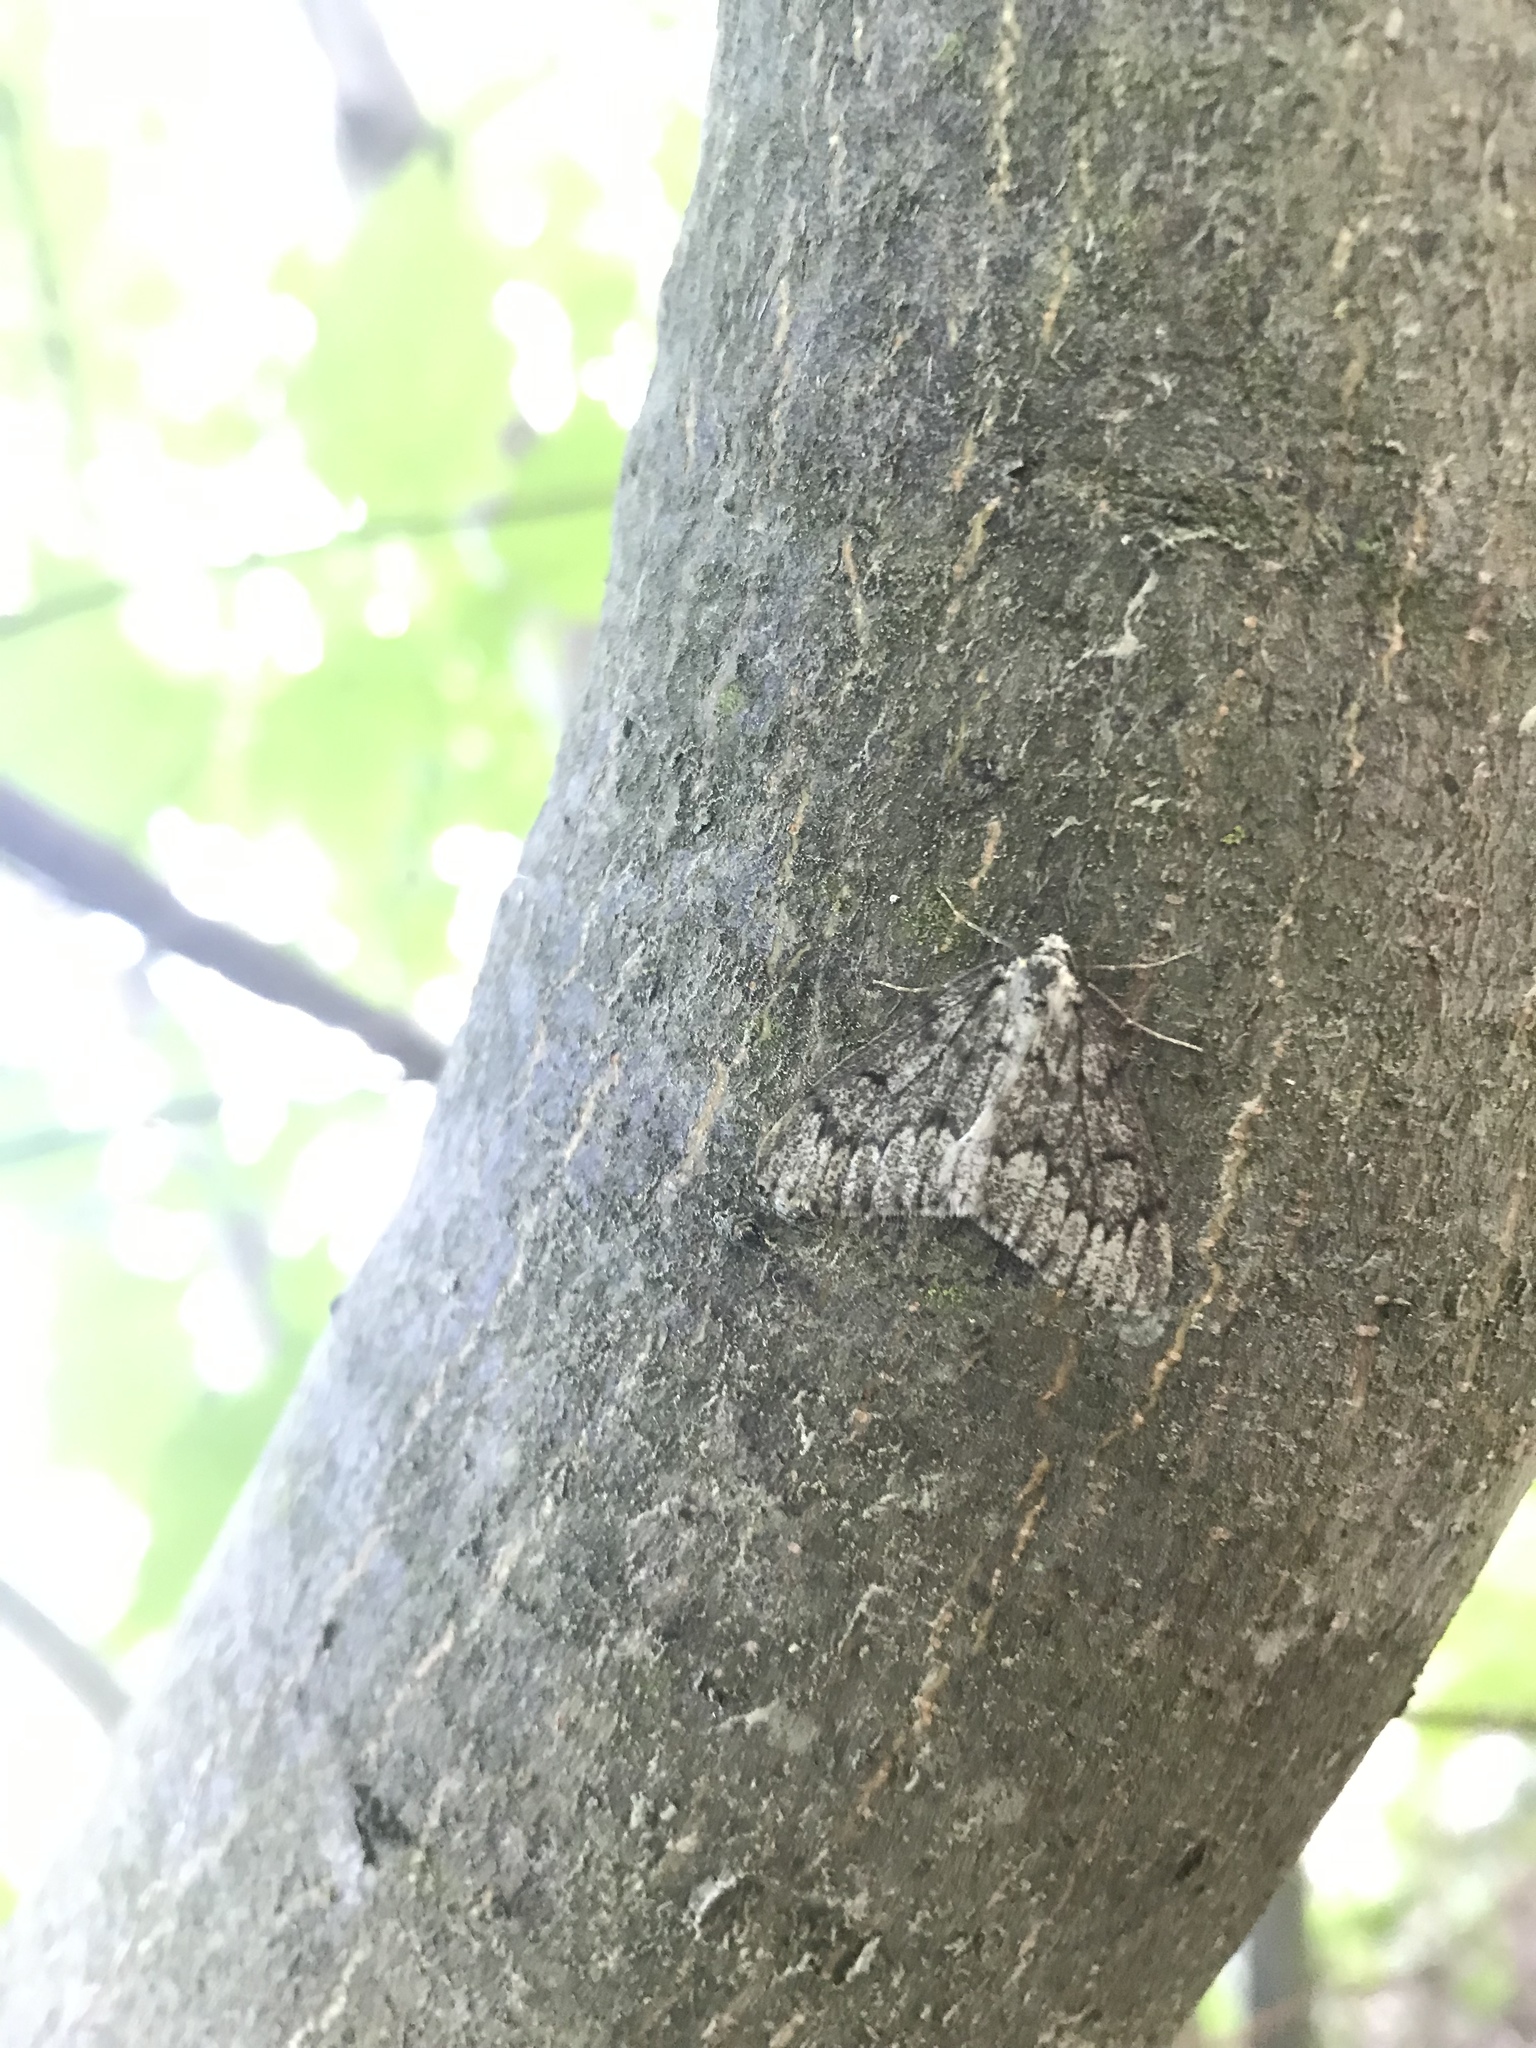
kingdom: Animalia
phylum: Arthropoda
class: Insecta
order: Lepidoptera
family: Geometridae
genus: Nepytia
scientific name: Nepytia freemani
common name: Western false hemlock looper
